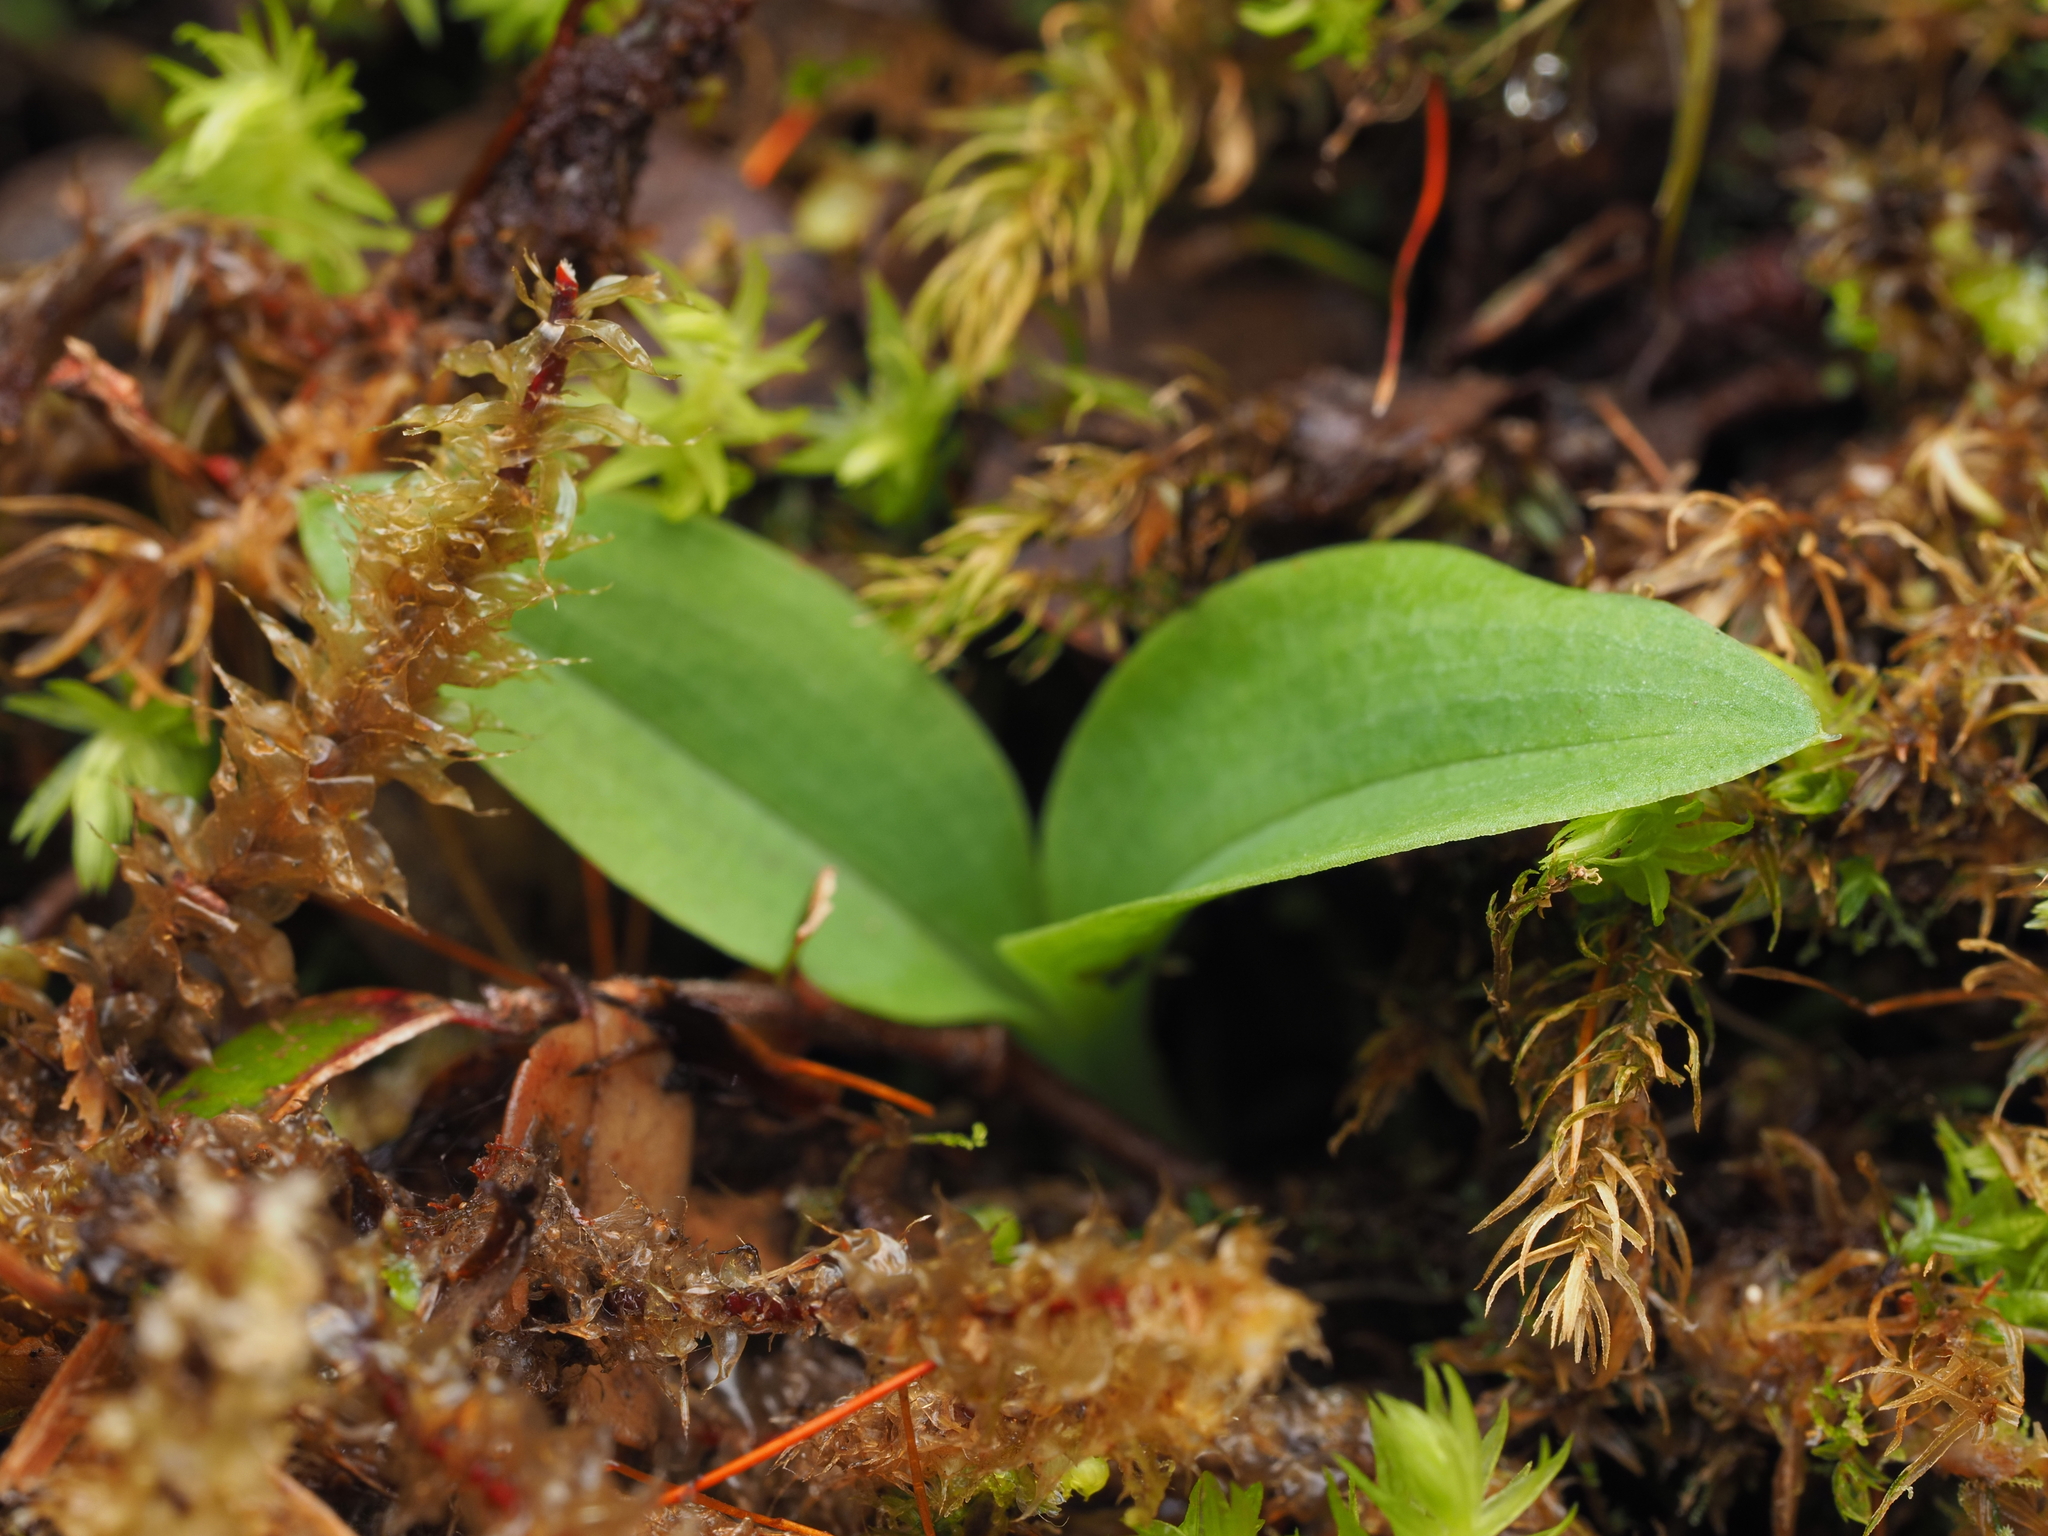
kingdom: Plantae
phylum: Tracheophyta
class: Liliopsida
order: Asparagales
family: Orchidaceae
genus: Chiloglottis
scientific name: Chiloglottis cornuta
